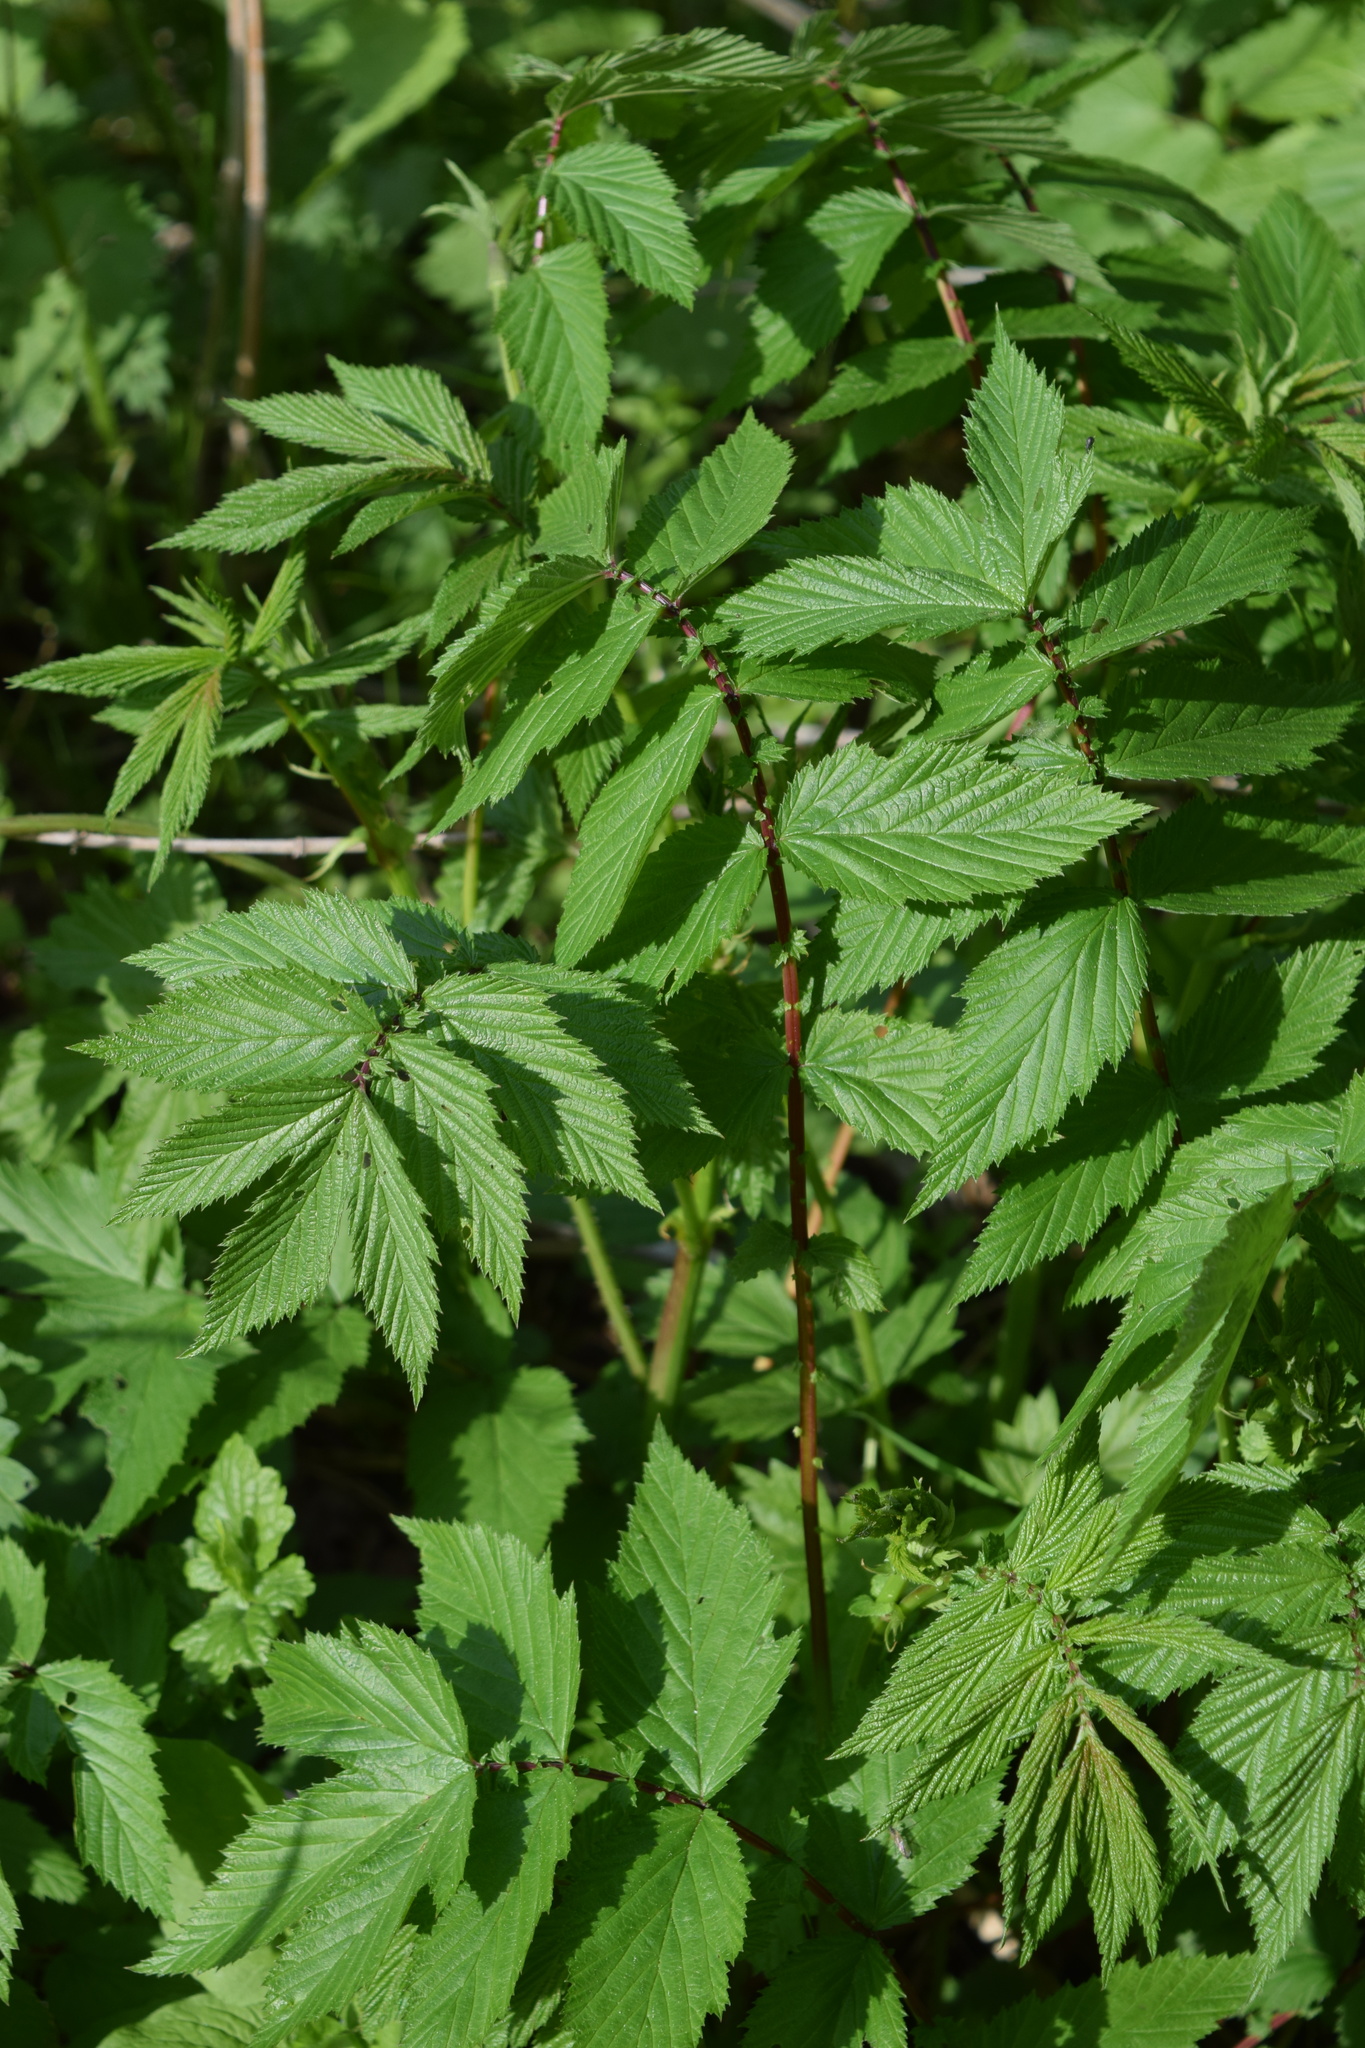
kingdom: Plantae
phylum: Tracheophyta
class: Magnoliopsida
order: Rosales
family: Rosaceae
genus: Filipendula
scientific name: Filipendula ulmaria
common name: Meadowsweet
